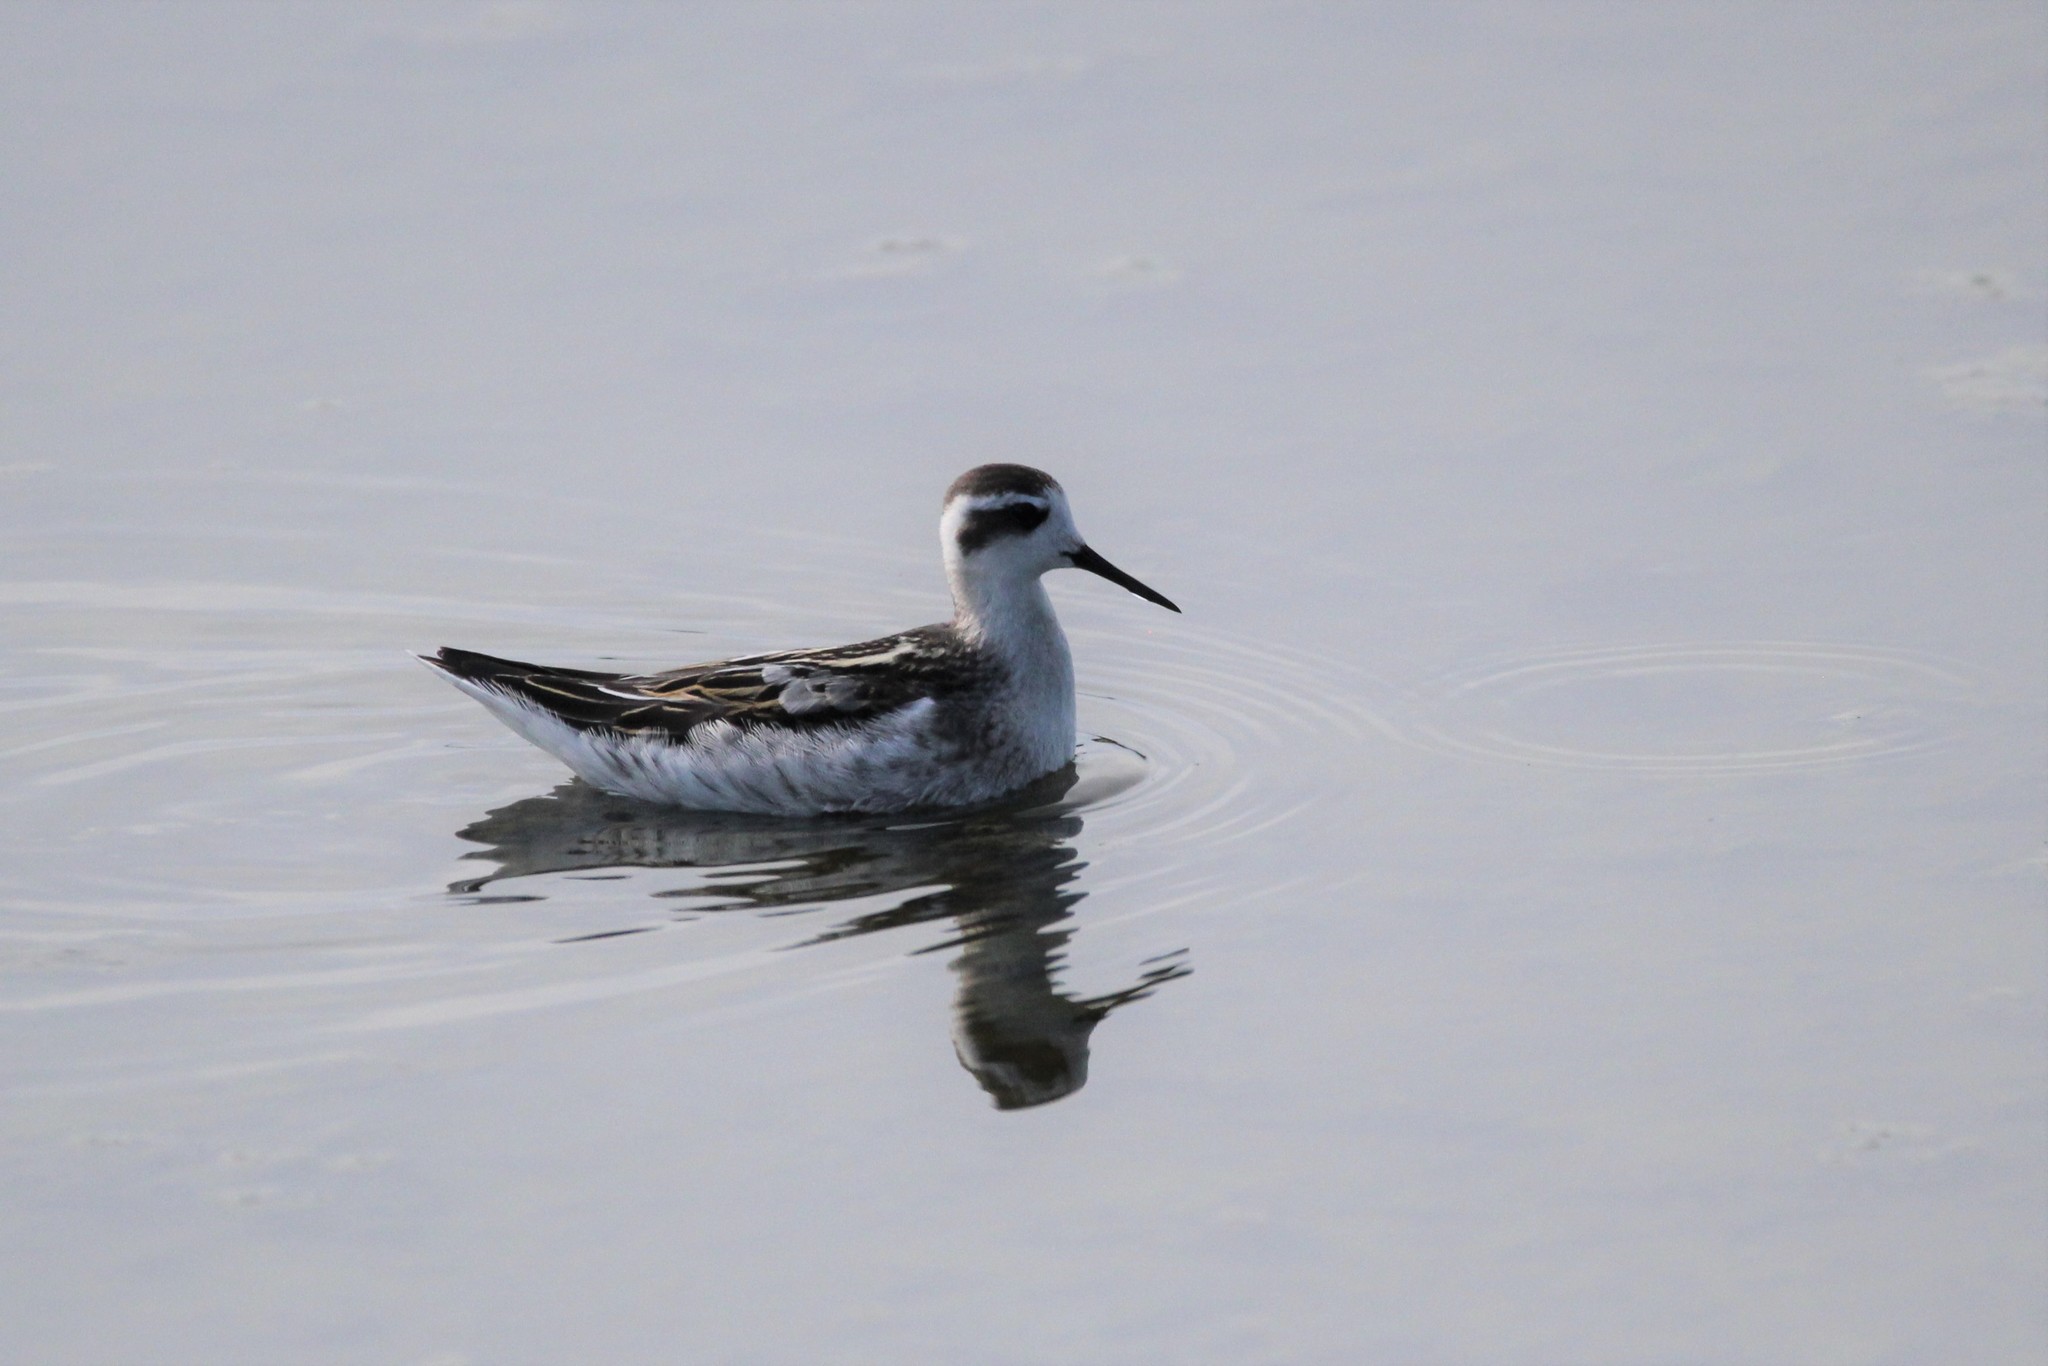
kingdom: Animalia
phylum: Chordata
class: Aves
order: Charadriiformes
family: Scolopacidae
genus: Phalaropus
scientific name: Phalaropus lobatus
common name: Red-necked phalarope
